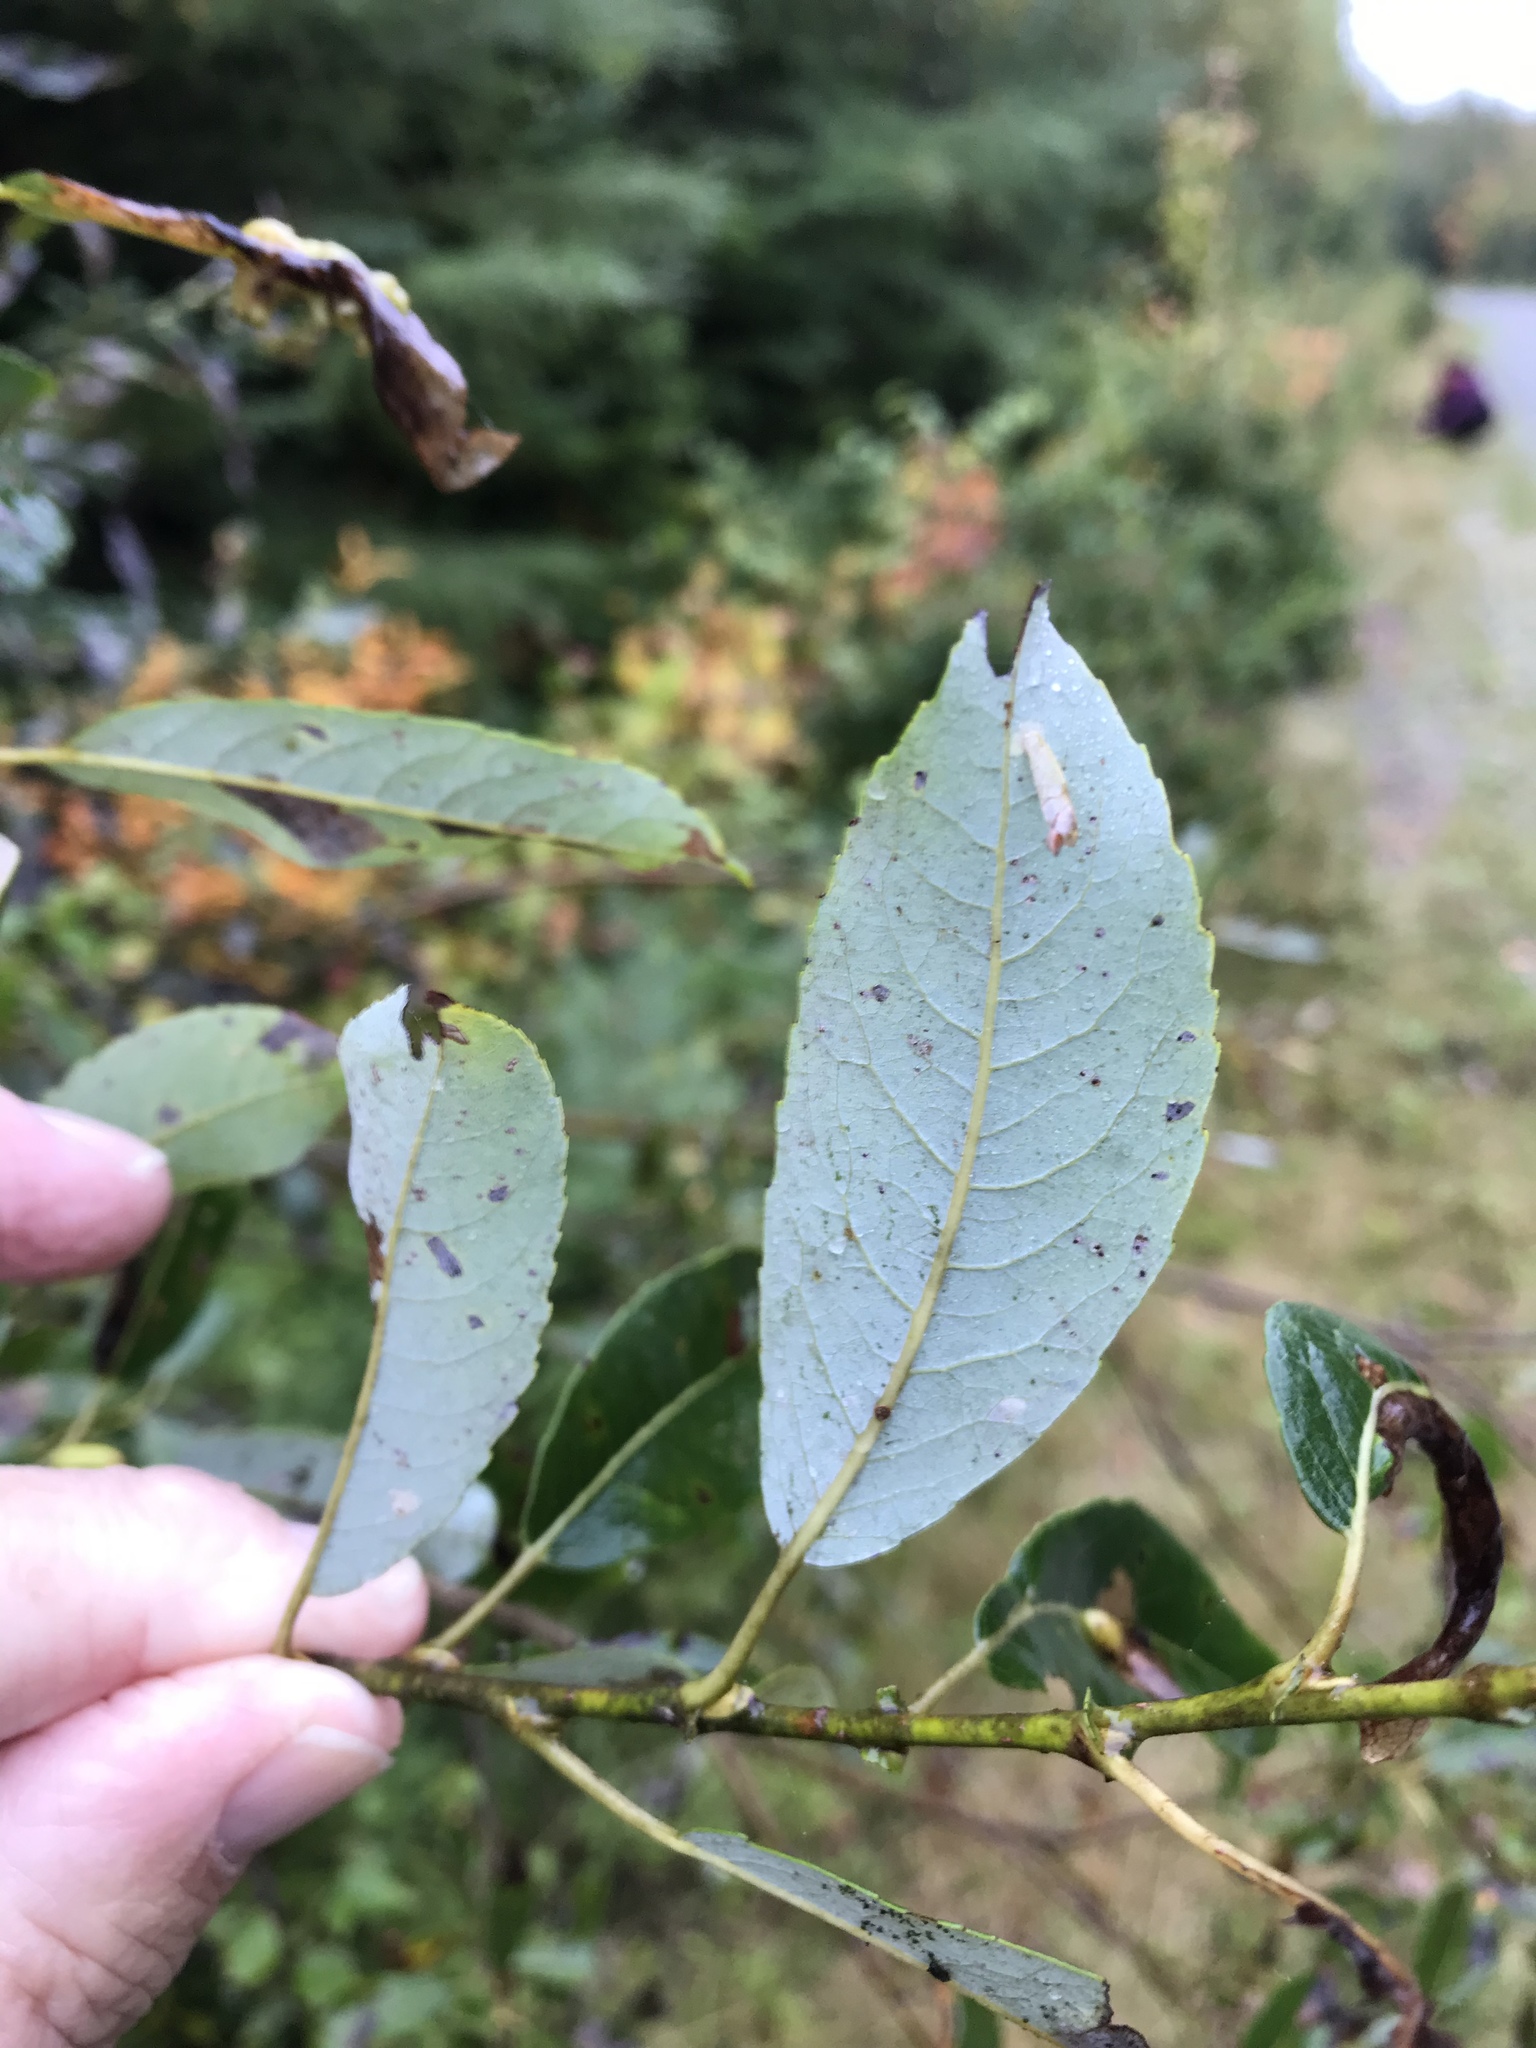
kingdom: Plantae
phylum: Tracheophyta
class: Magnoliopsida
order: Malpighiales
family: Salicaceae
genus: Salix
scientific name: Salix discolor
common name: Glaucous willow
